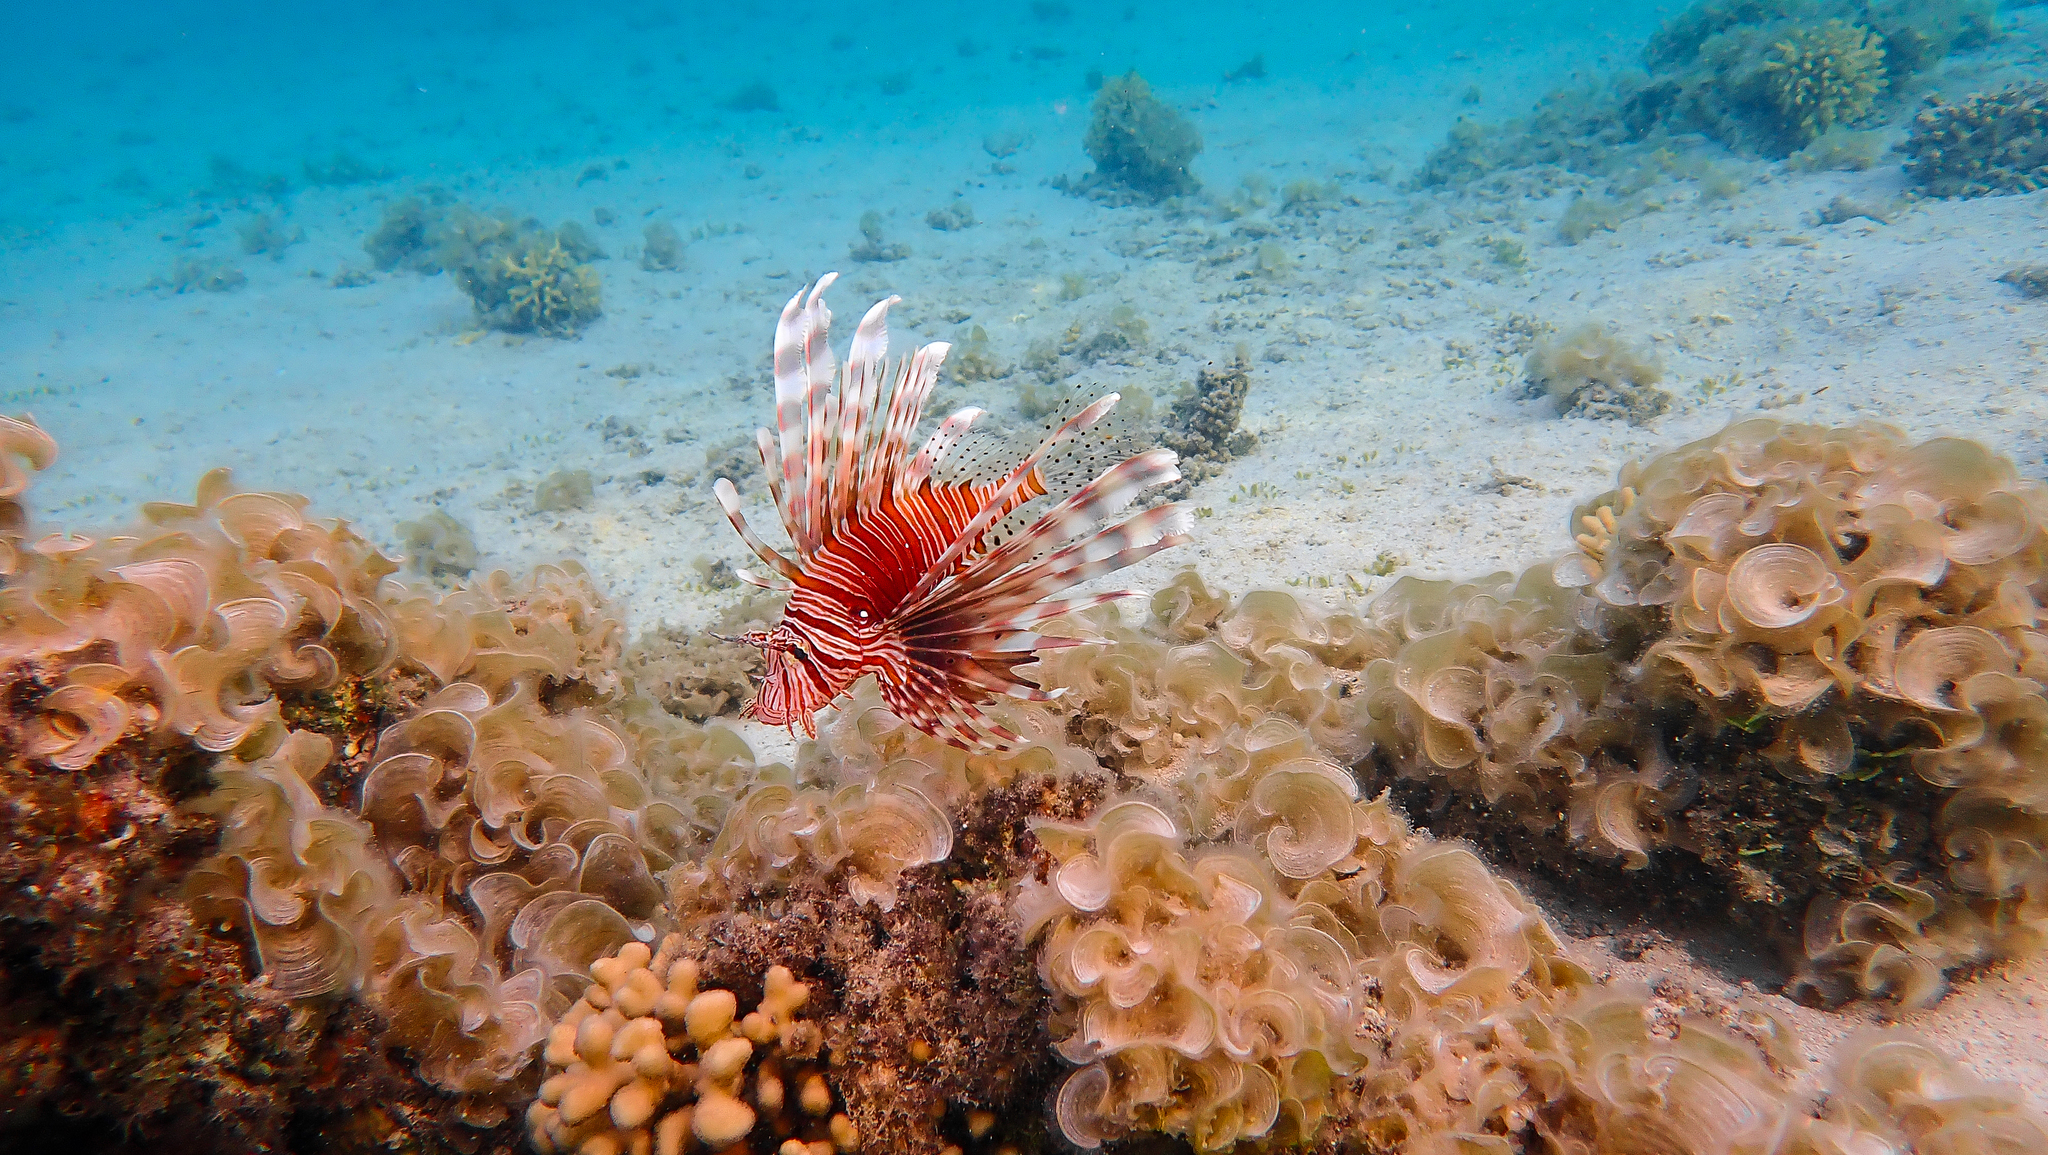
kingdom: Animalia
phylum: Chordata
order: Scorpaeniformes
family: Scorpaenidae
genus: Pterois
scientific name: Pterois miles
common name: Devil firefish
